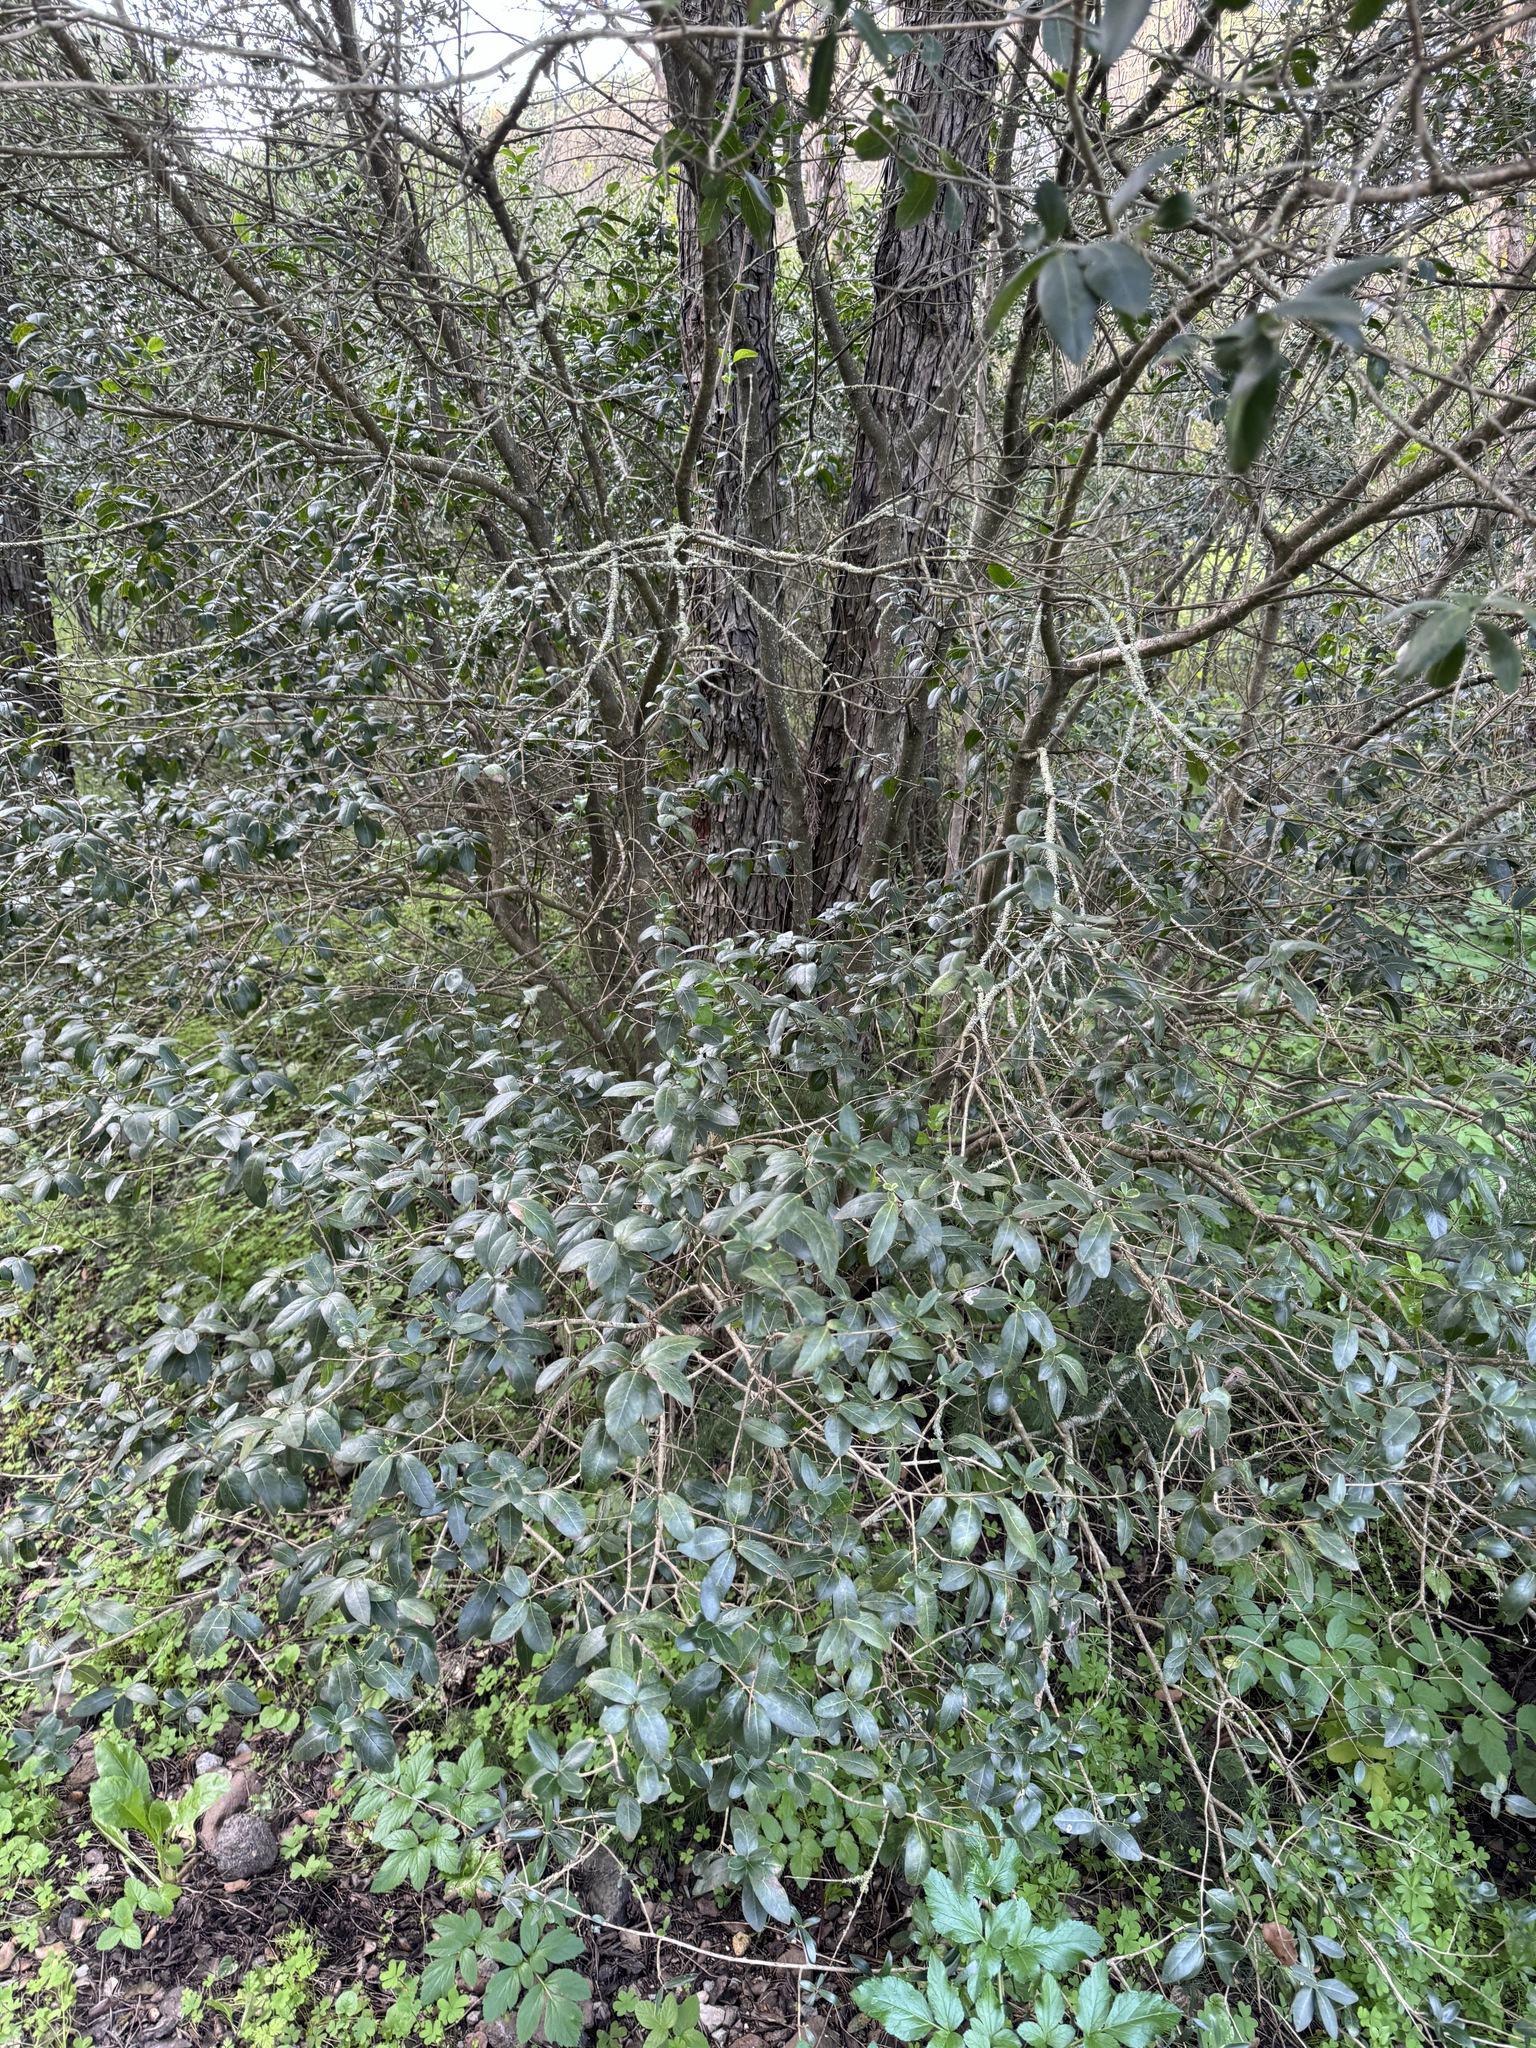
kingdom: Plantae
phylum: Tracheophyta
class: Magnoliopsida
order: Lamiales
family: Oleaceae
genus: Phillyrea
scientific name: Phillyrea latifolia
